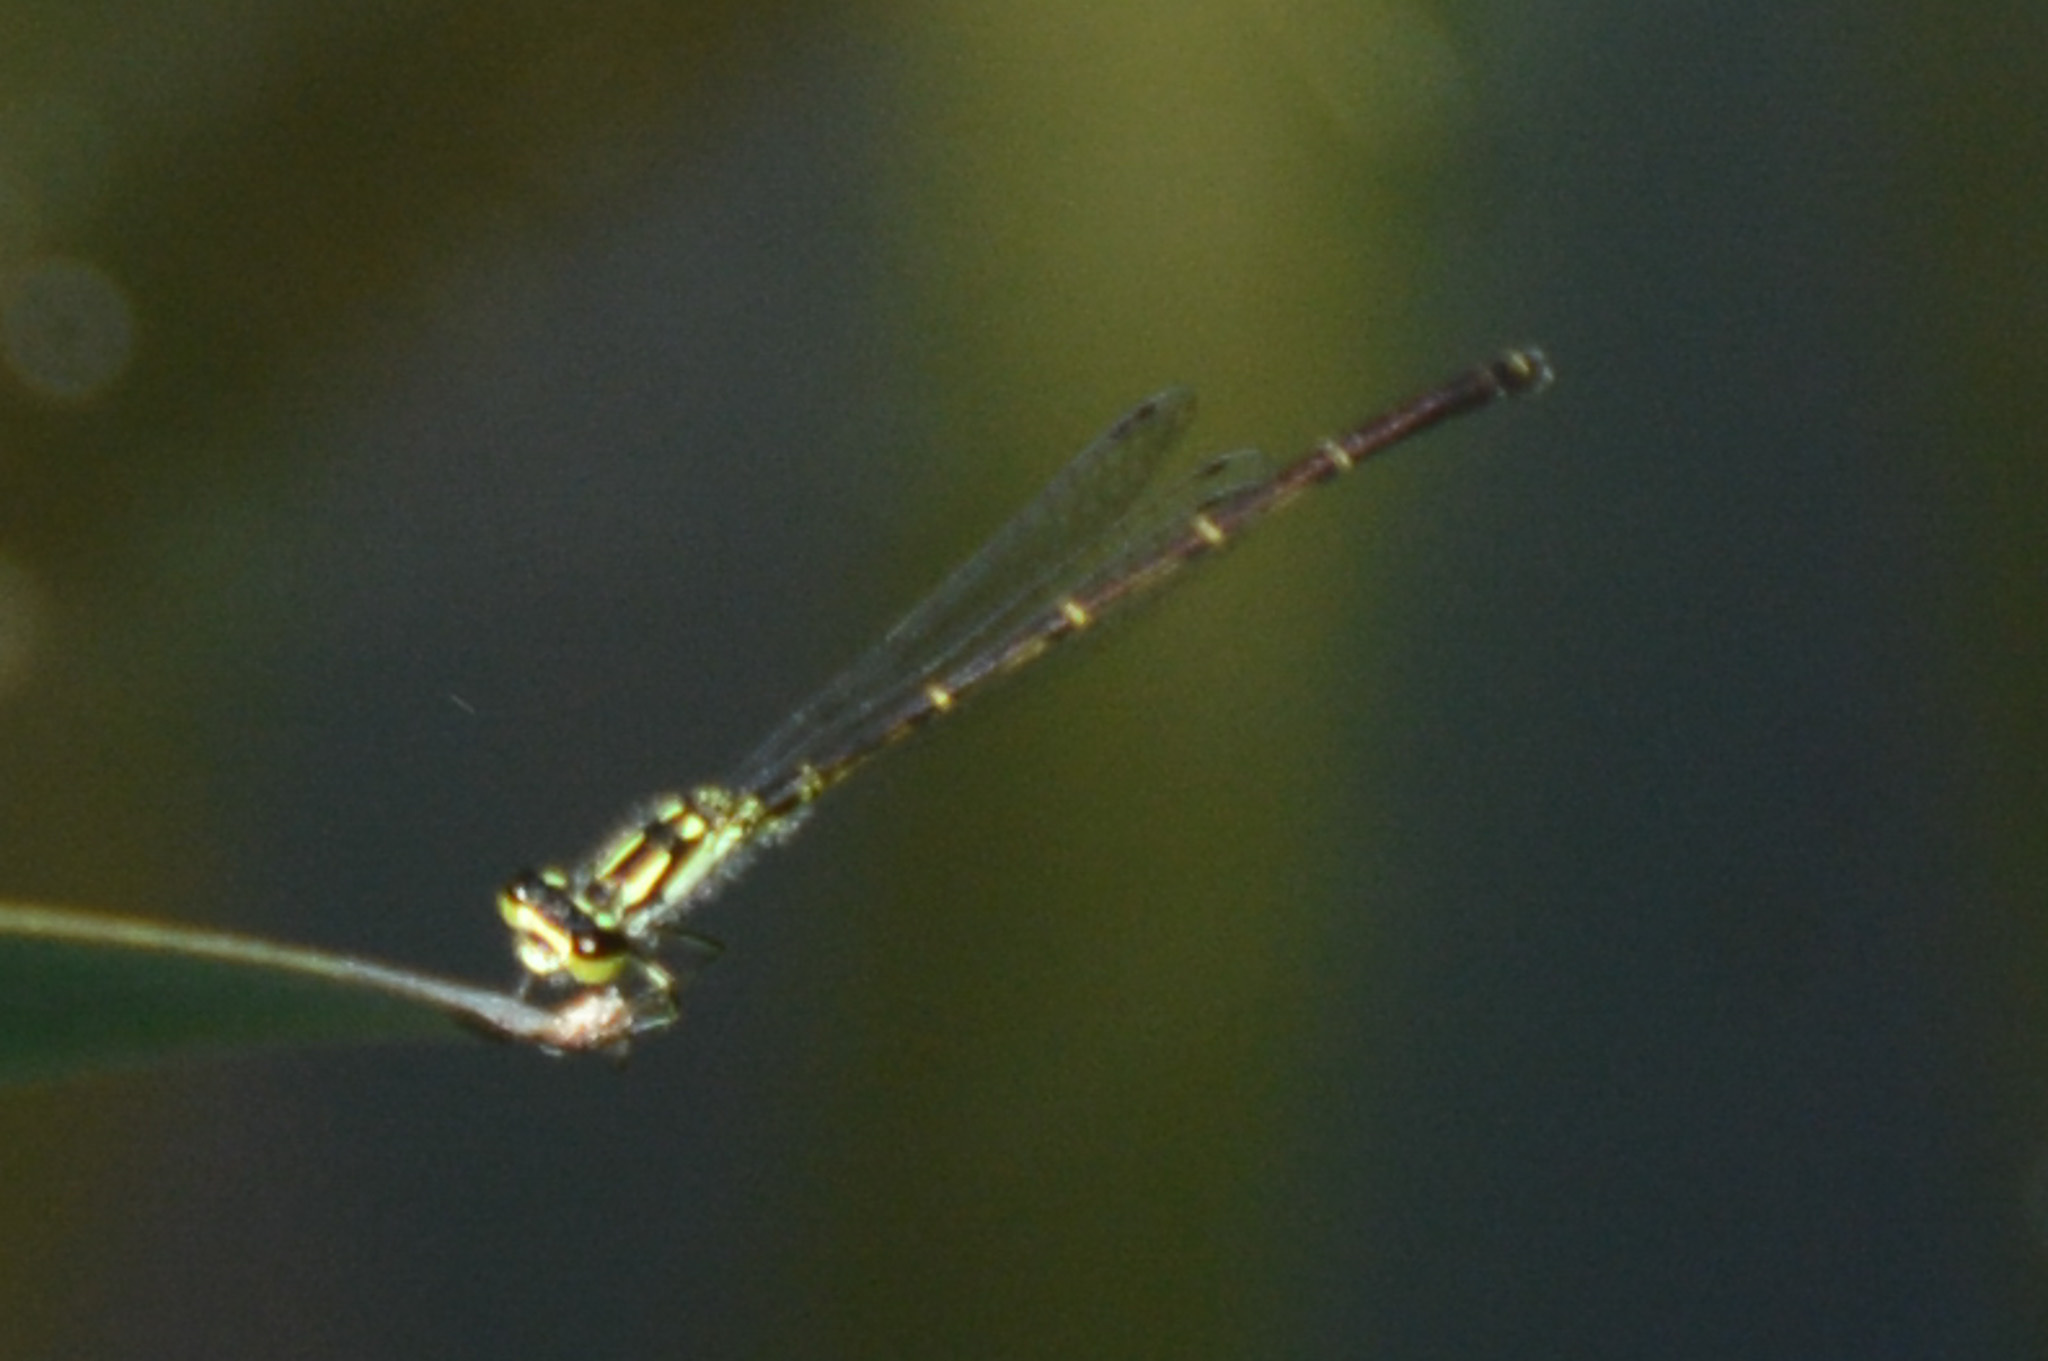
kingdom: Animalia
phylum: Arthropoda
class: Insecta
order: Odonata
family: Coenagrionidae
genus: Ischnura
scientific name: Ischnura posita
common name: Fragile forktail
